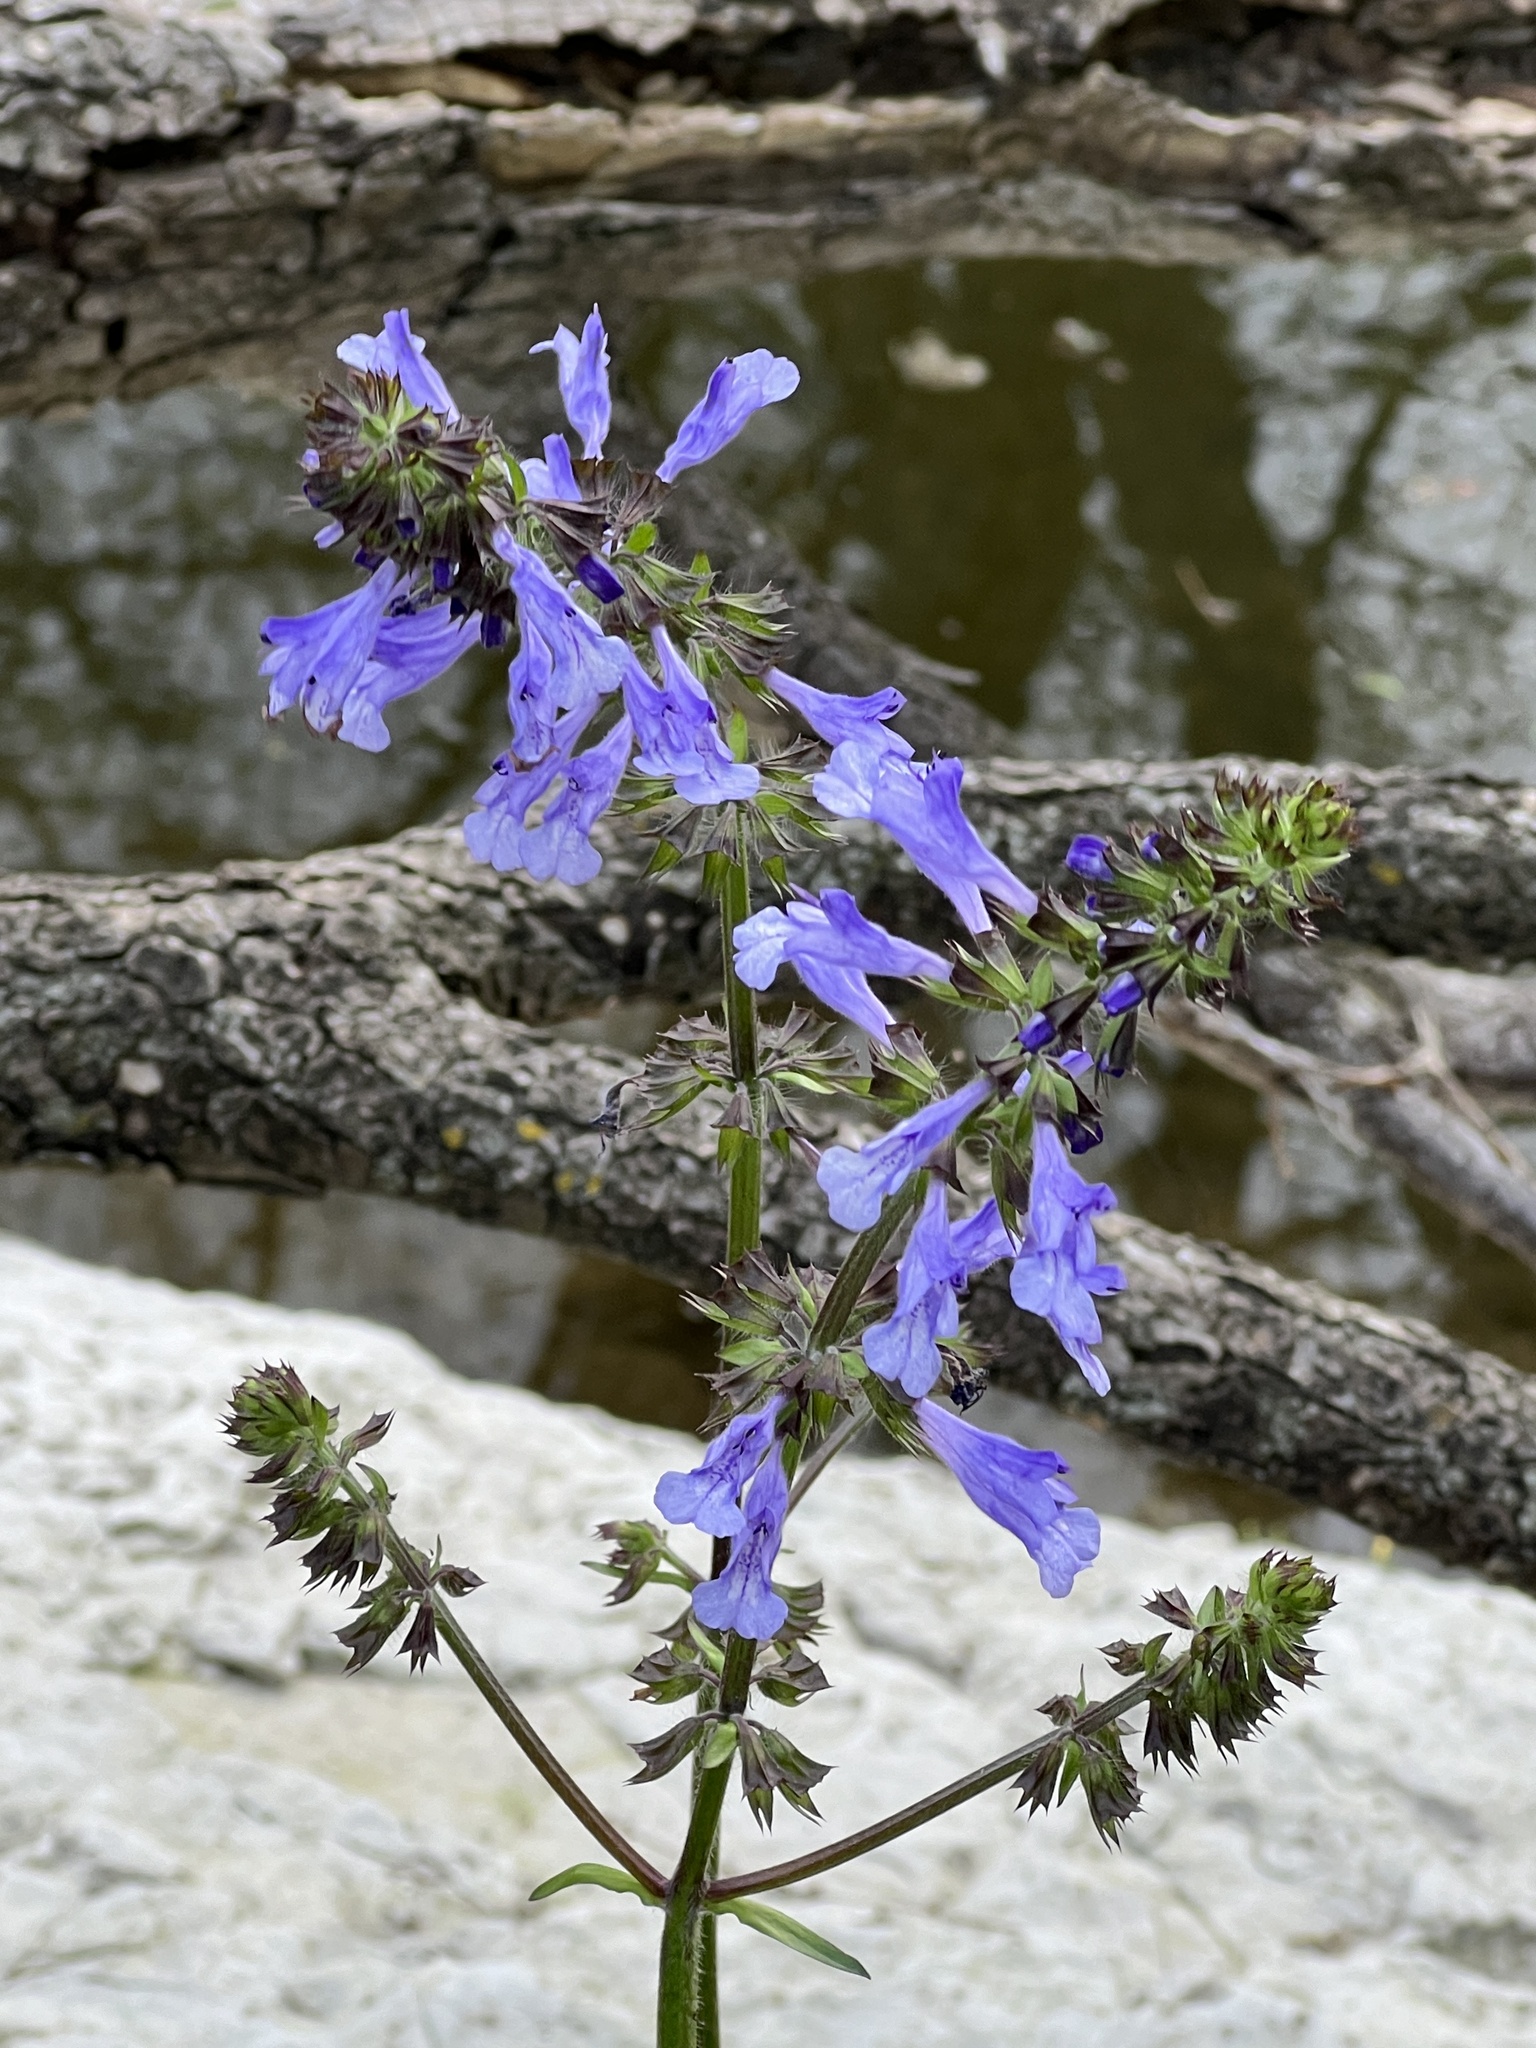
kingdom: Plantae
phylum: Tracheophyta
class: Magnoliopsida
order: Lamiales
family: Lamiaceae
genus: Salvia
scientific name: Salvia lyrata
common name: Cancerweed
